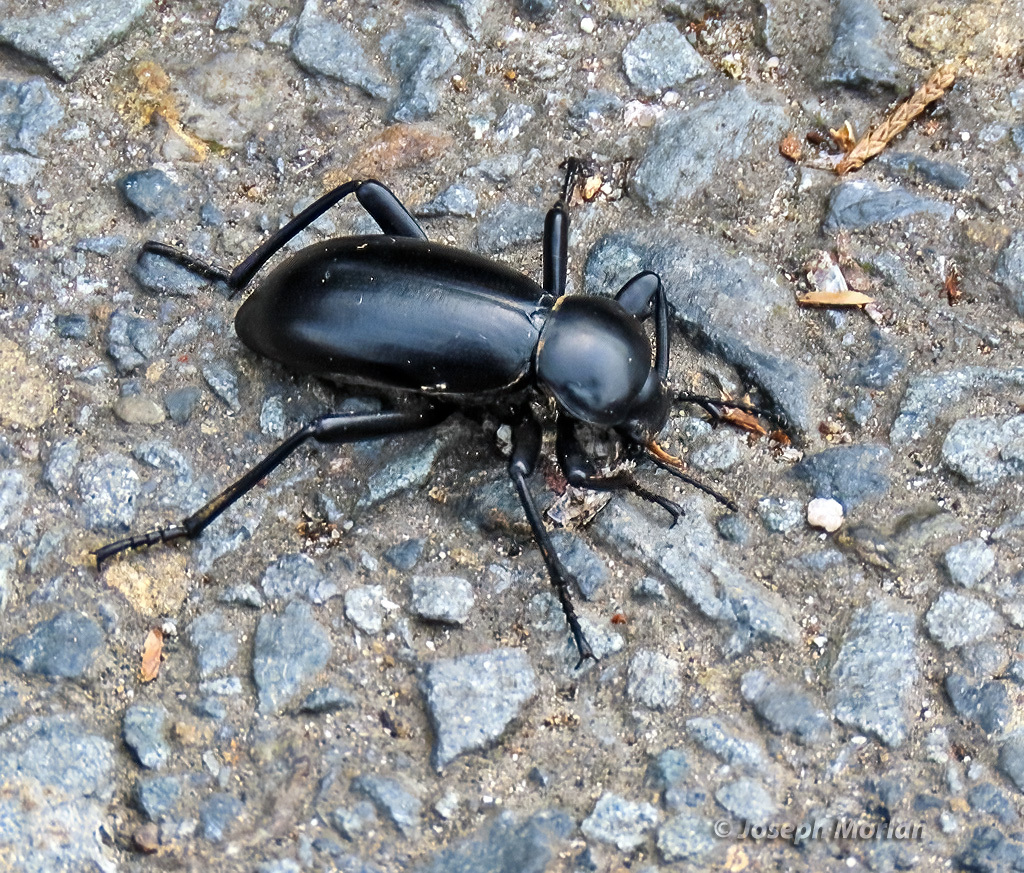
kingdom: Animalia
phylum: Arthropoda
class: Insecta
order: Coleoptera
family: Tenebrionidae
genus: Eleodes
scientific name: Eleodes grandicollis
